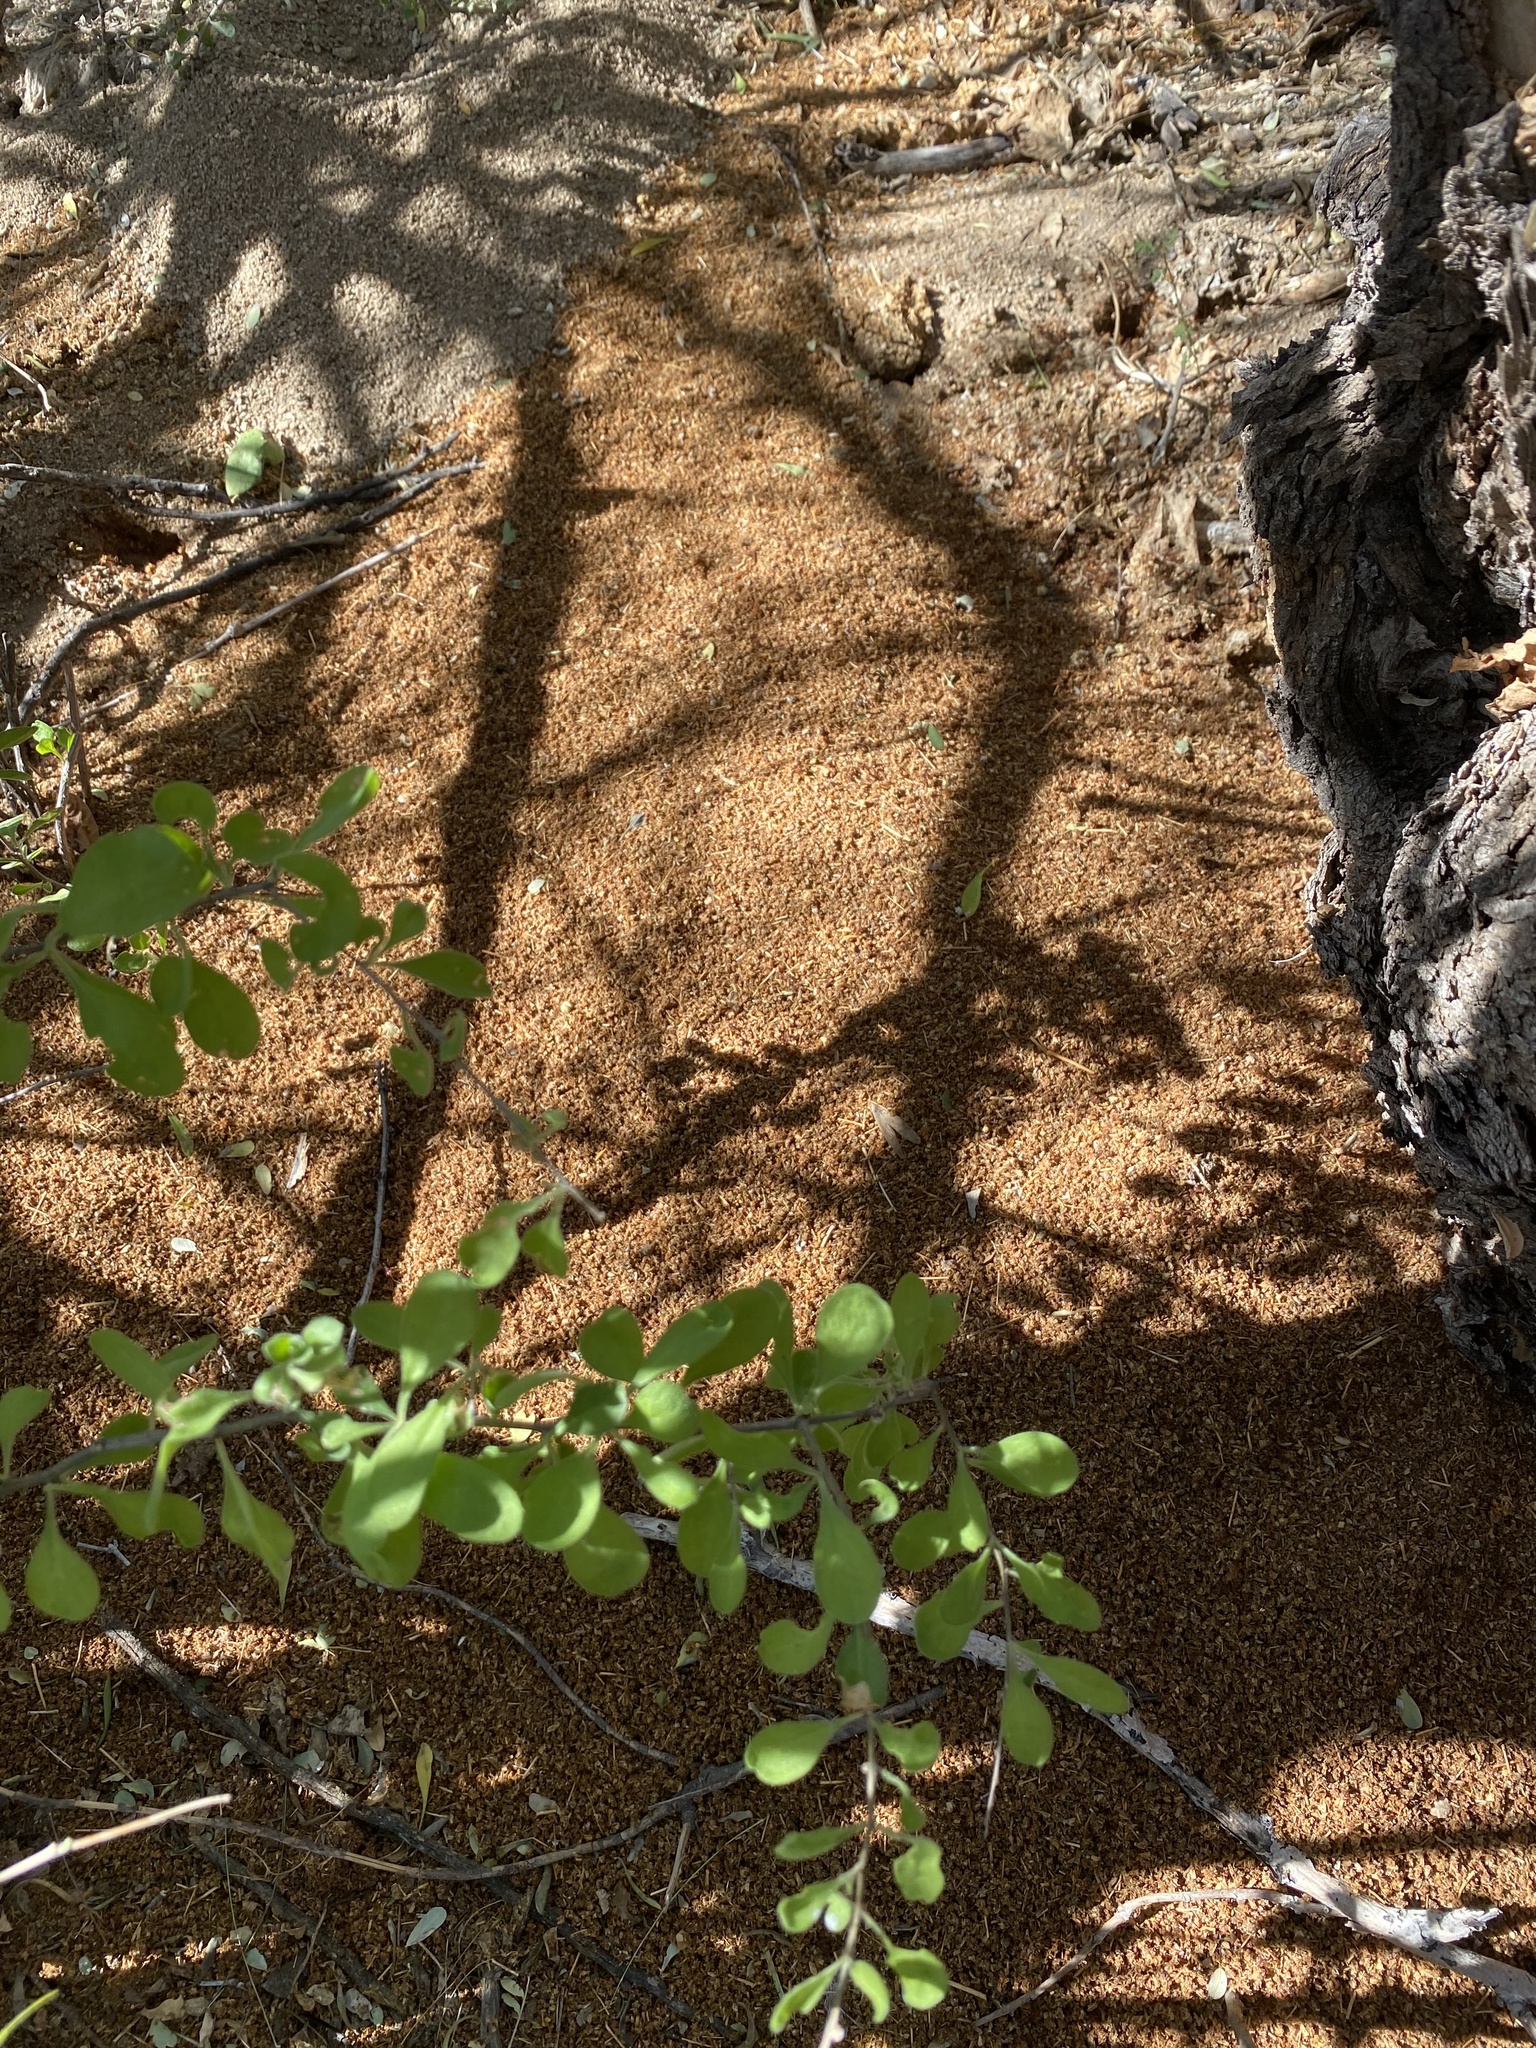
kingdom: Animalia
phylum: Arthropoda
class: Insecta
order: Hymenoptera
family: Formicidae
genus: Atta
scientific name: Atta mexicana
